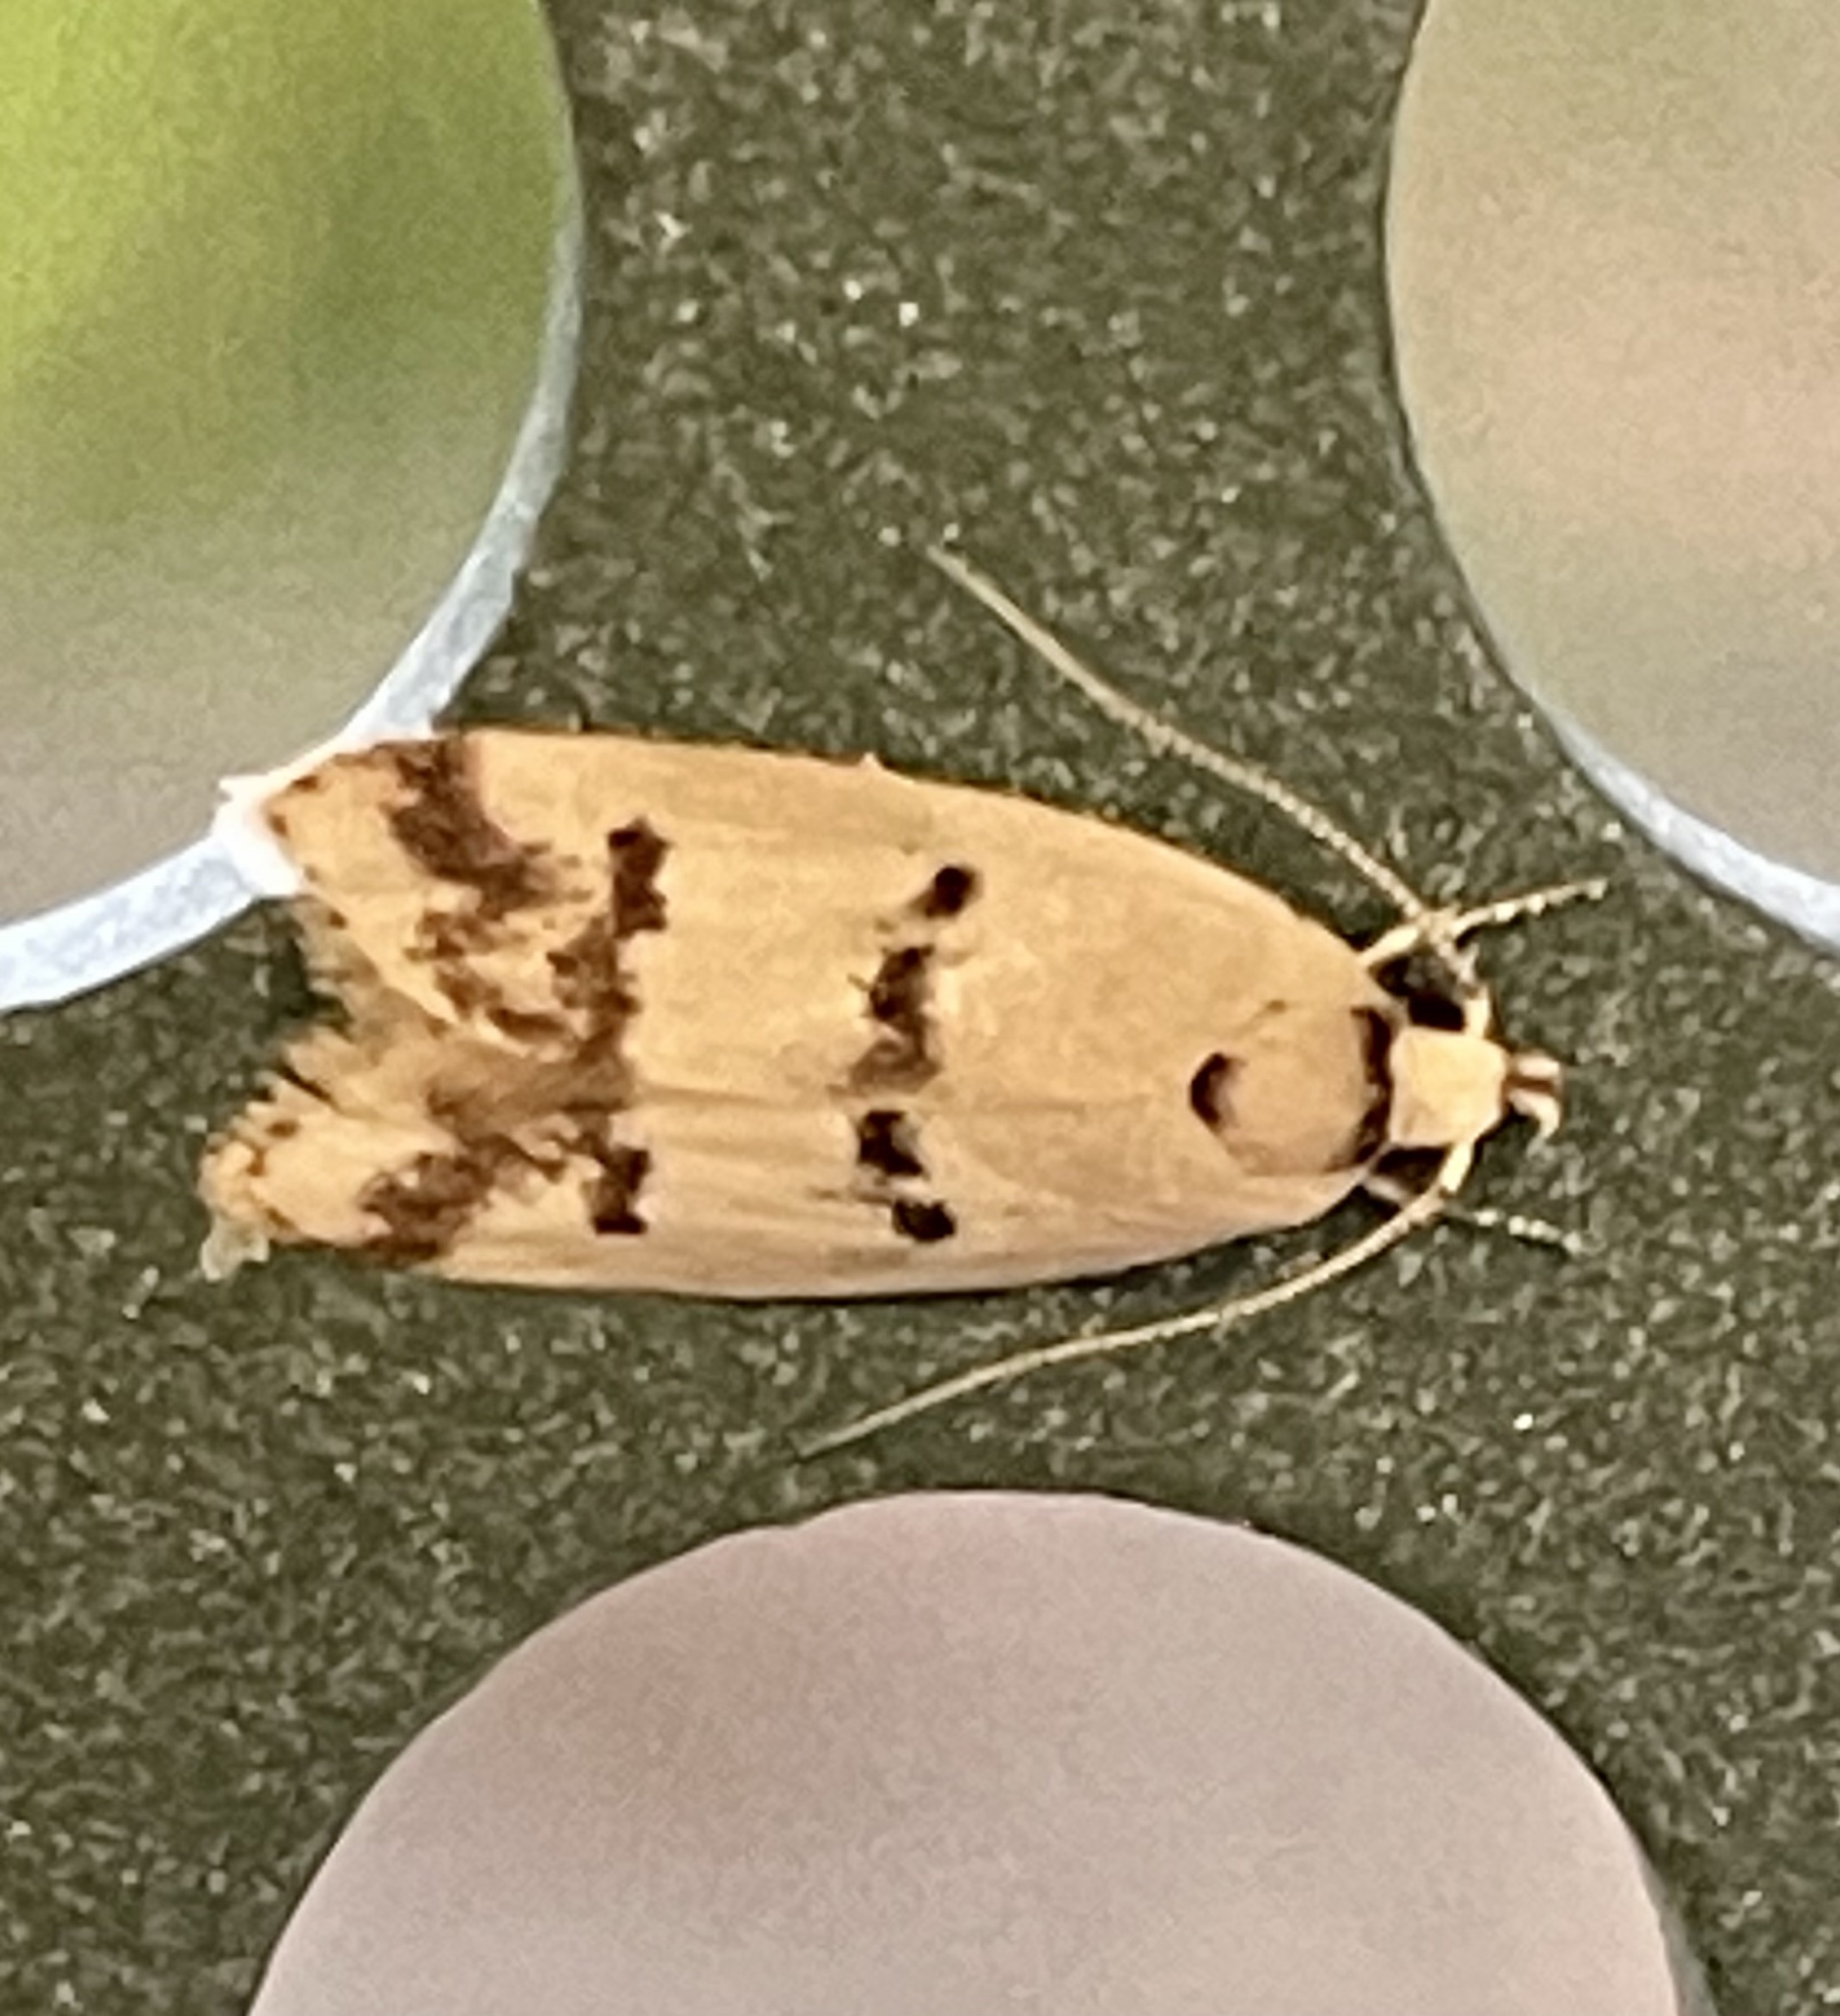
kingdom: Animalia
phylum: Arthropoda
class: Insecta
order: Lepidoptera
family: Oecophoridae
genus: Compsotropha
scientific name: Compsotropha strophiella
